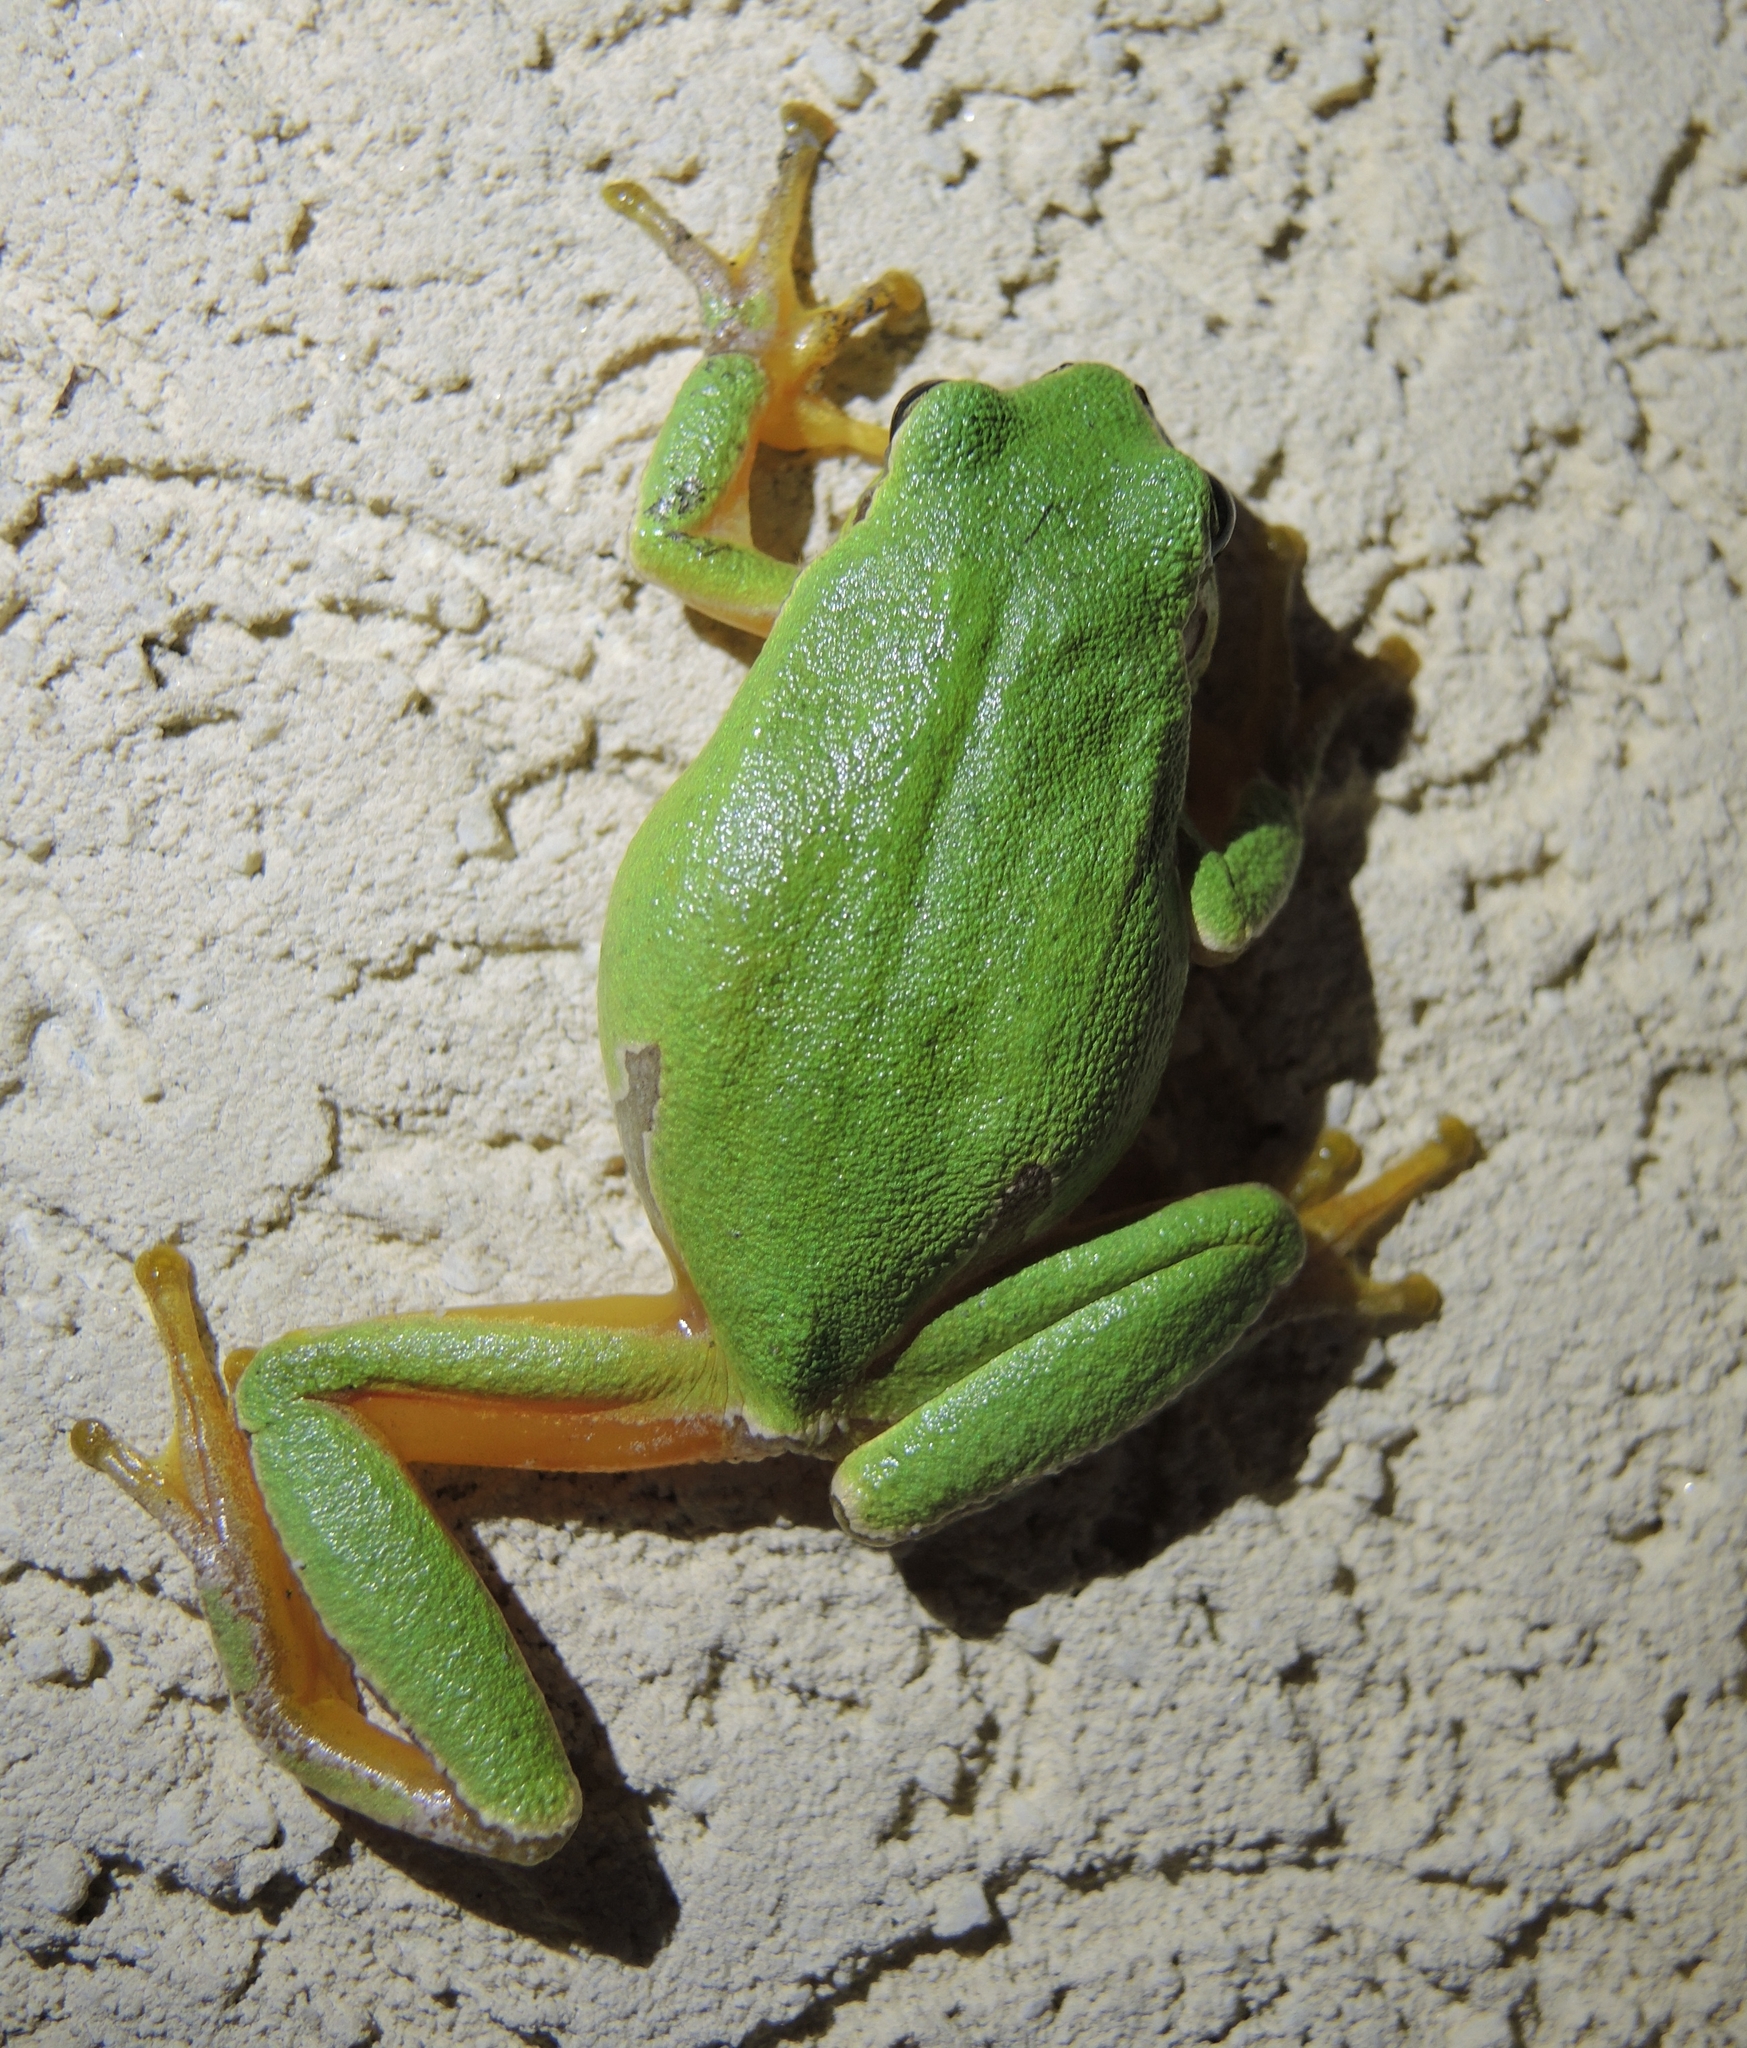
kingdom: Animalia
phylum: Chordata
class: Amphibia
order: Anura
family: Hylidae
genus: Hyla
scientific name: Hyla orientalis
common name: Caucasian treefrog
